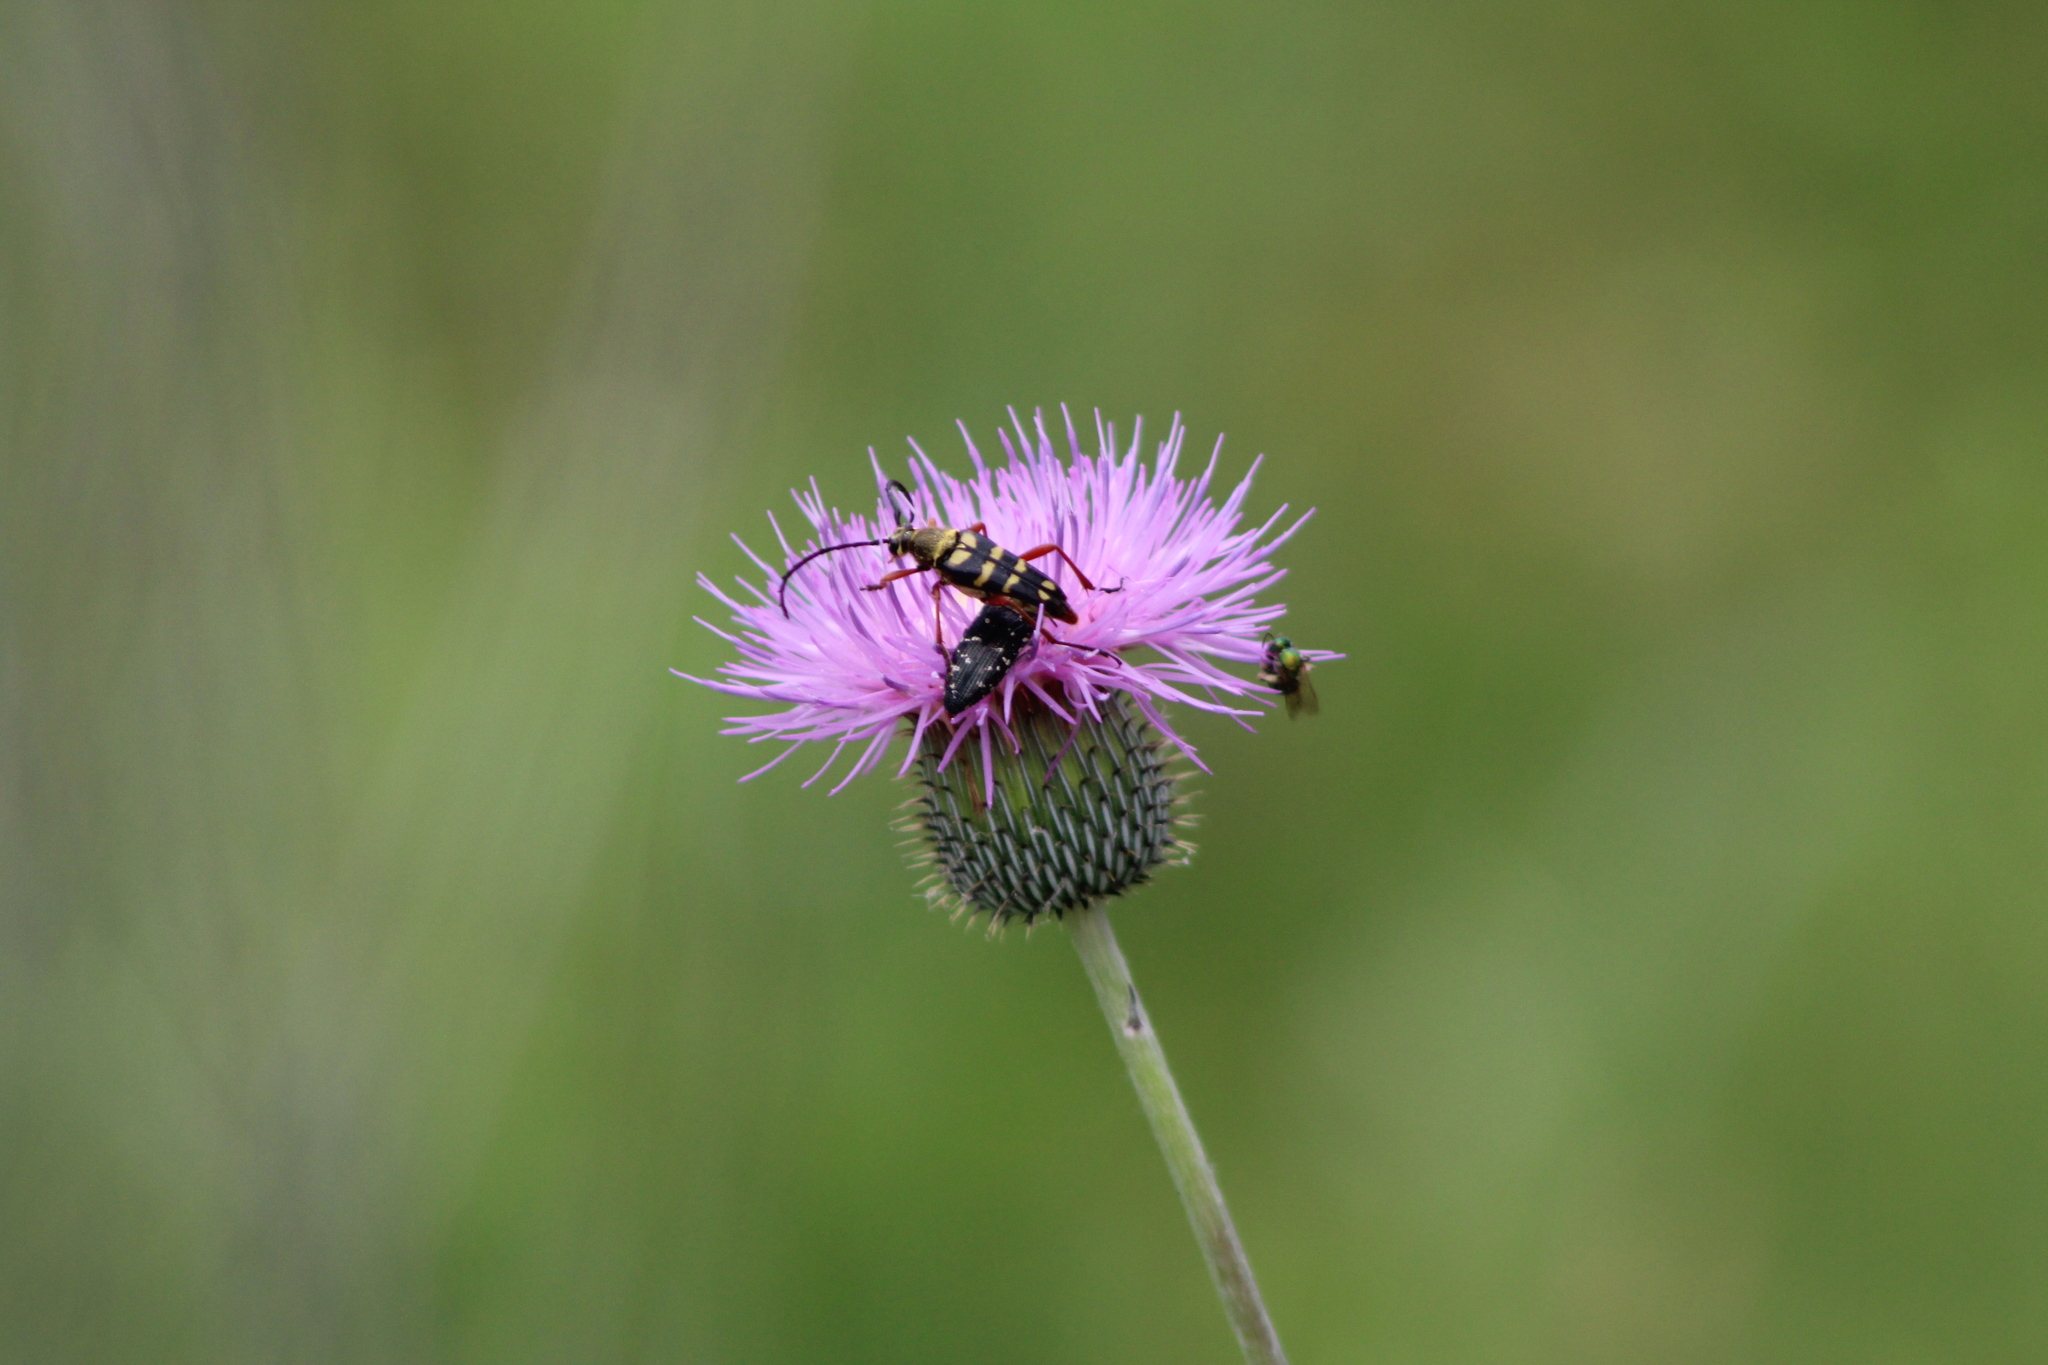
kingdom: Animalia
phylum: Arthropoda
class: Insecta
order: Coleoptera
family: Buprestidae
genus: Acmaeodera
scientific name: Acmaeodera ornatoides
